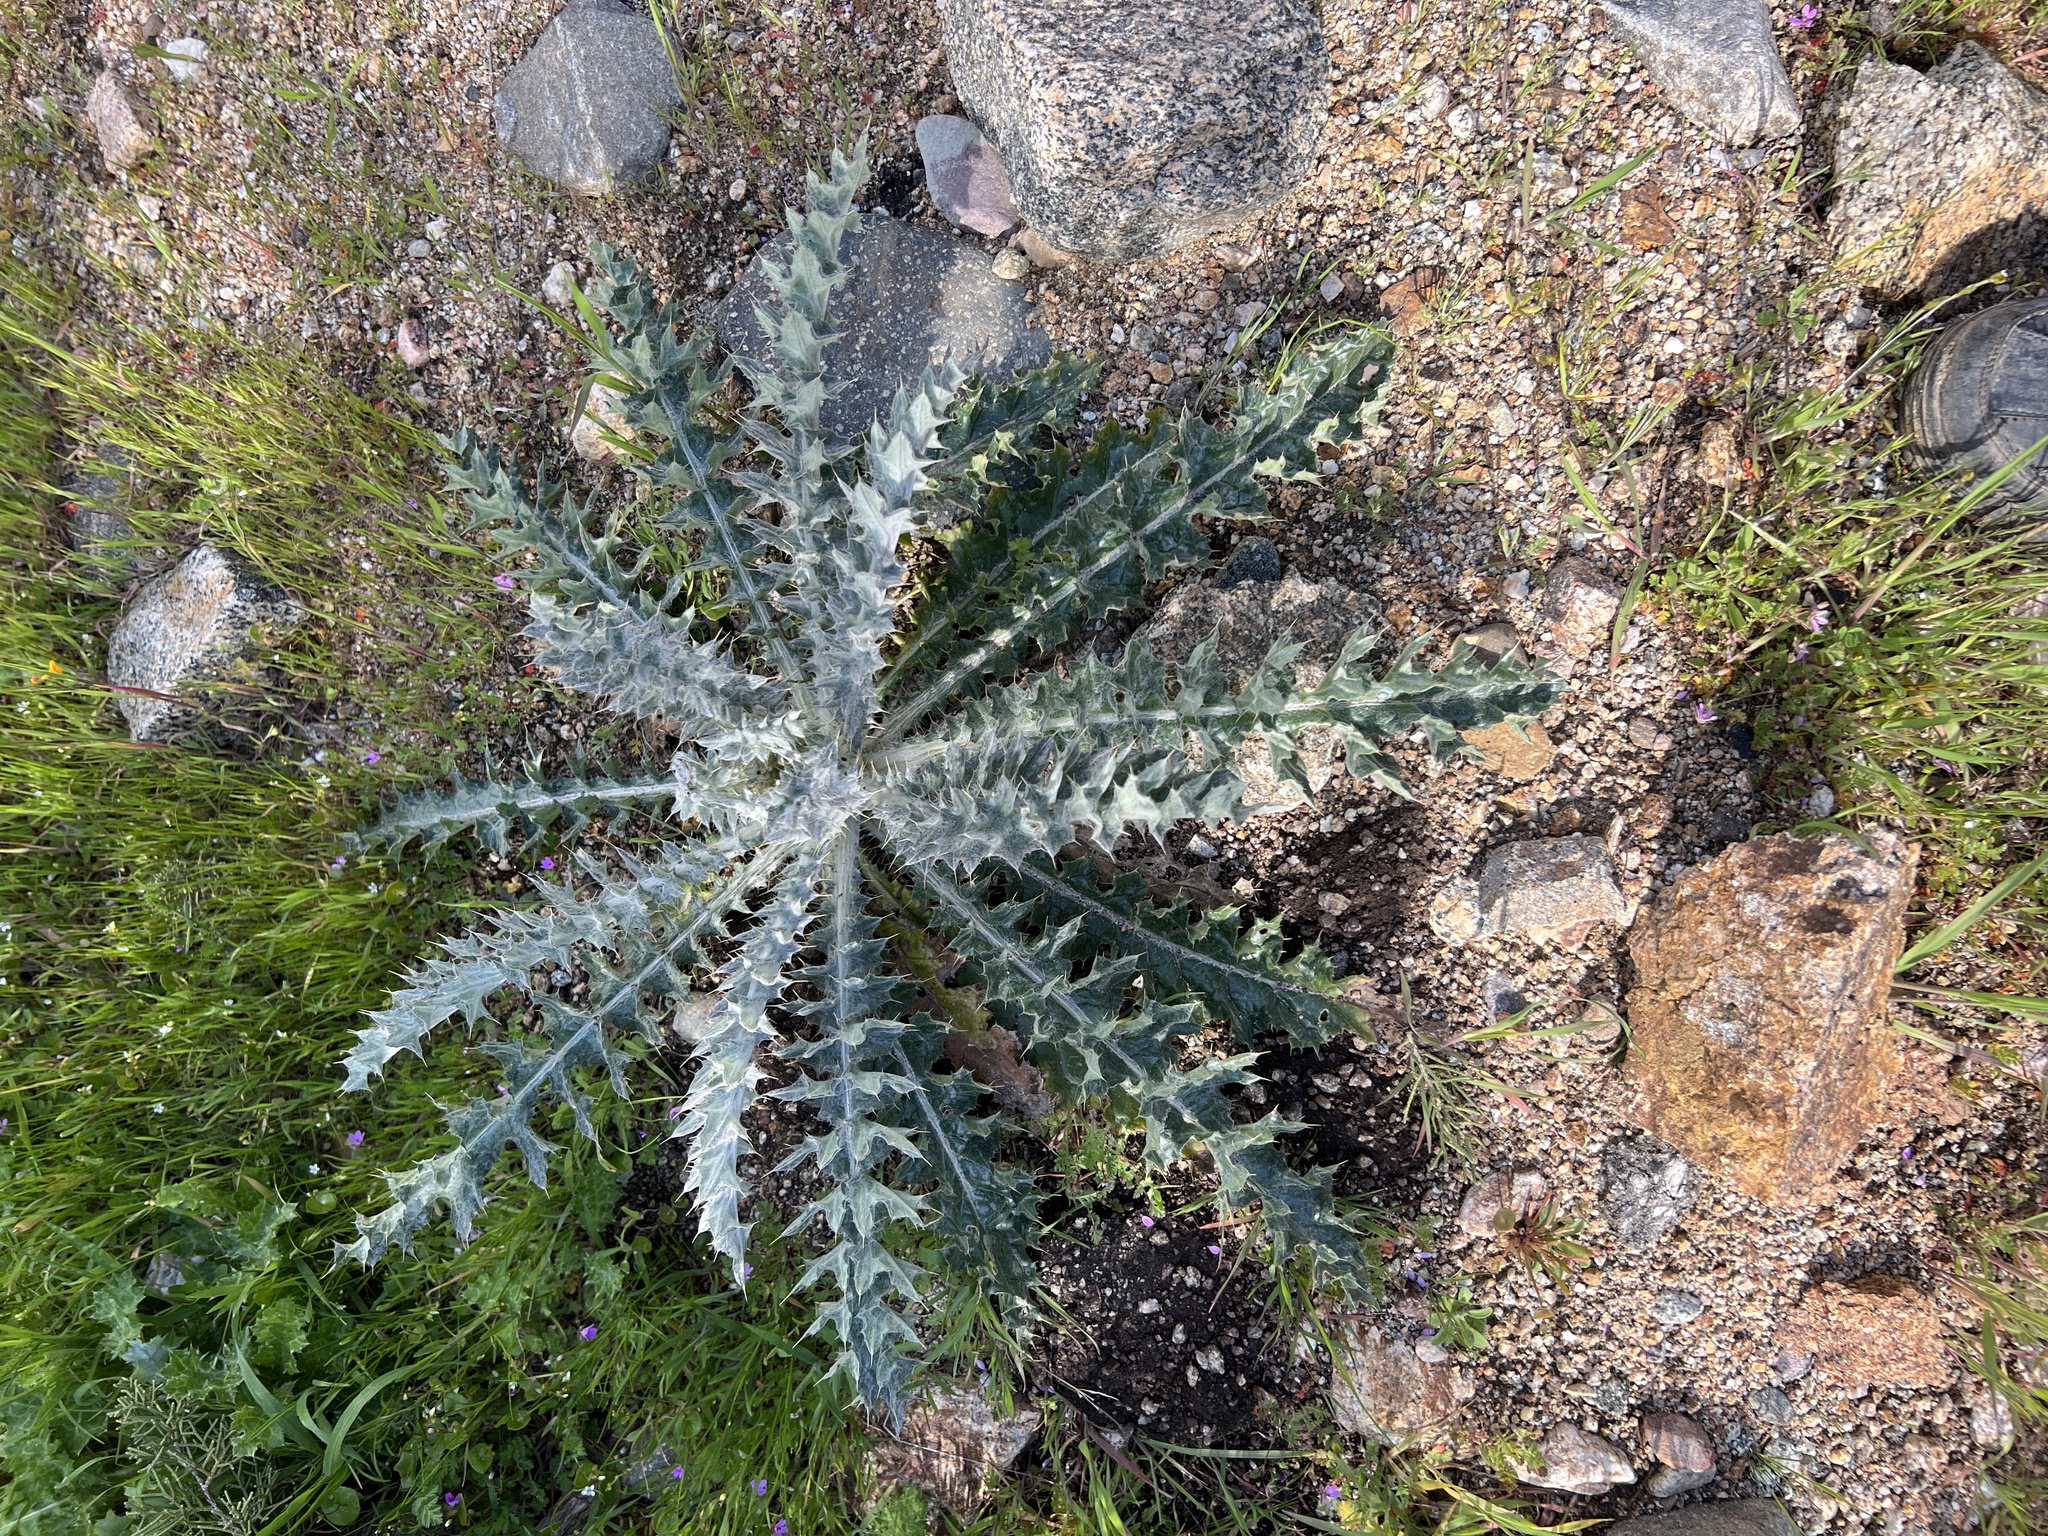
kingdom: Plantae
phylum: Tracheophyta
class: Magnoliopsida
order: Asterales
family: Asteraceae
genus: Cirsium
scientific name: Cirsium occidentale
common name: Western thistle
